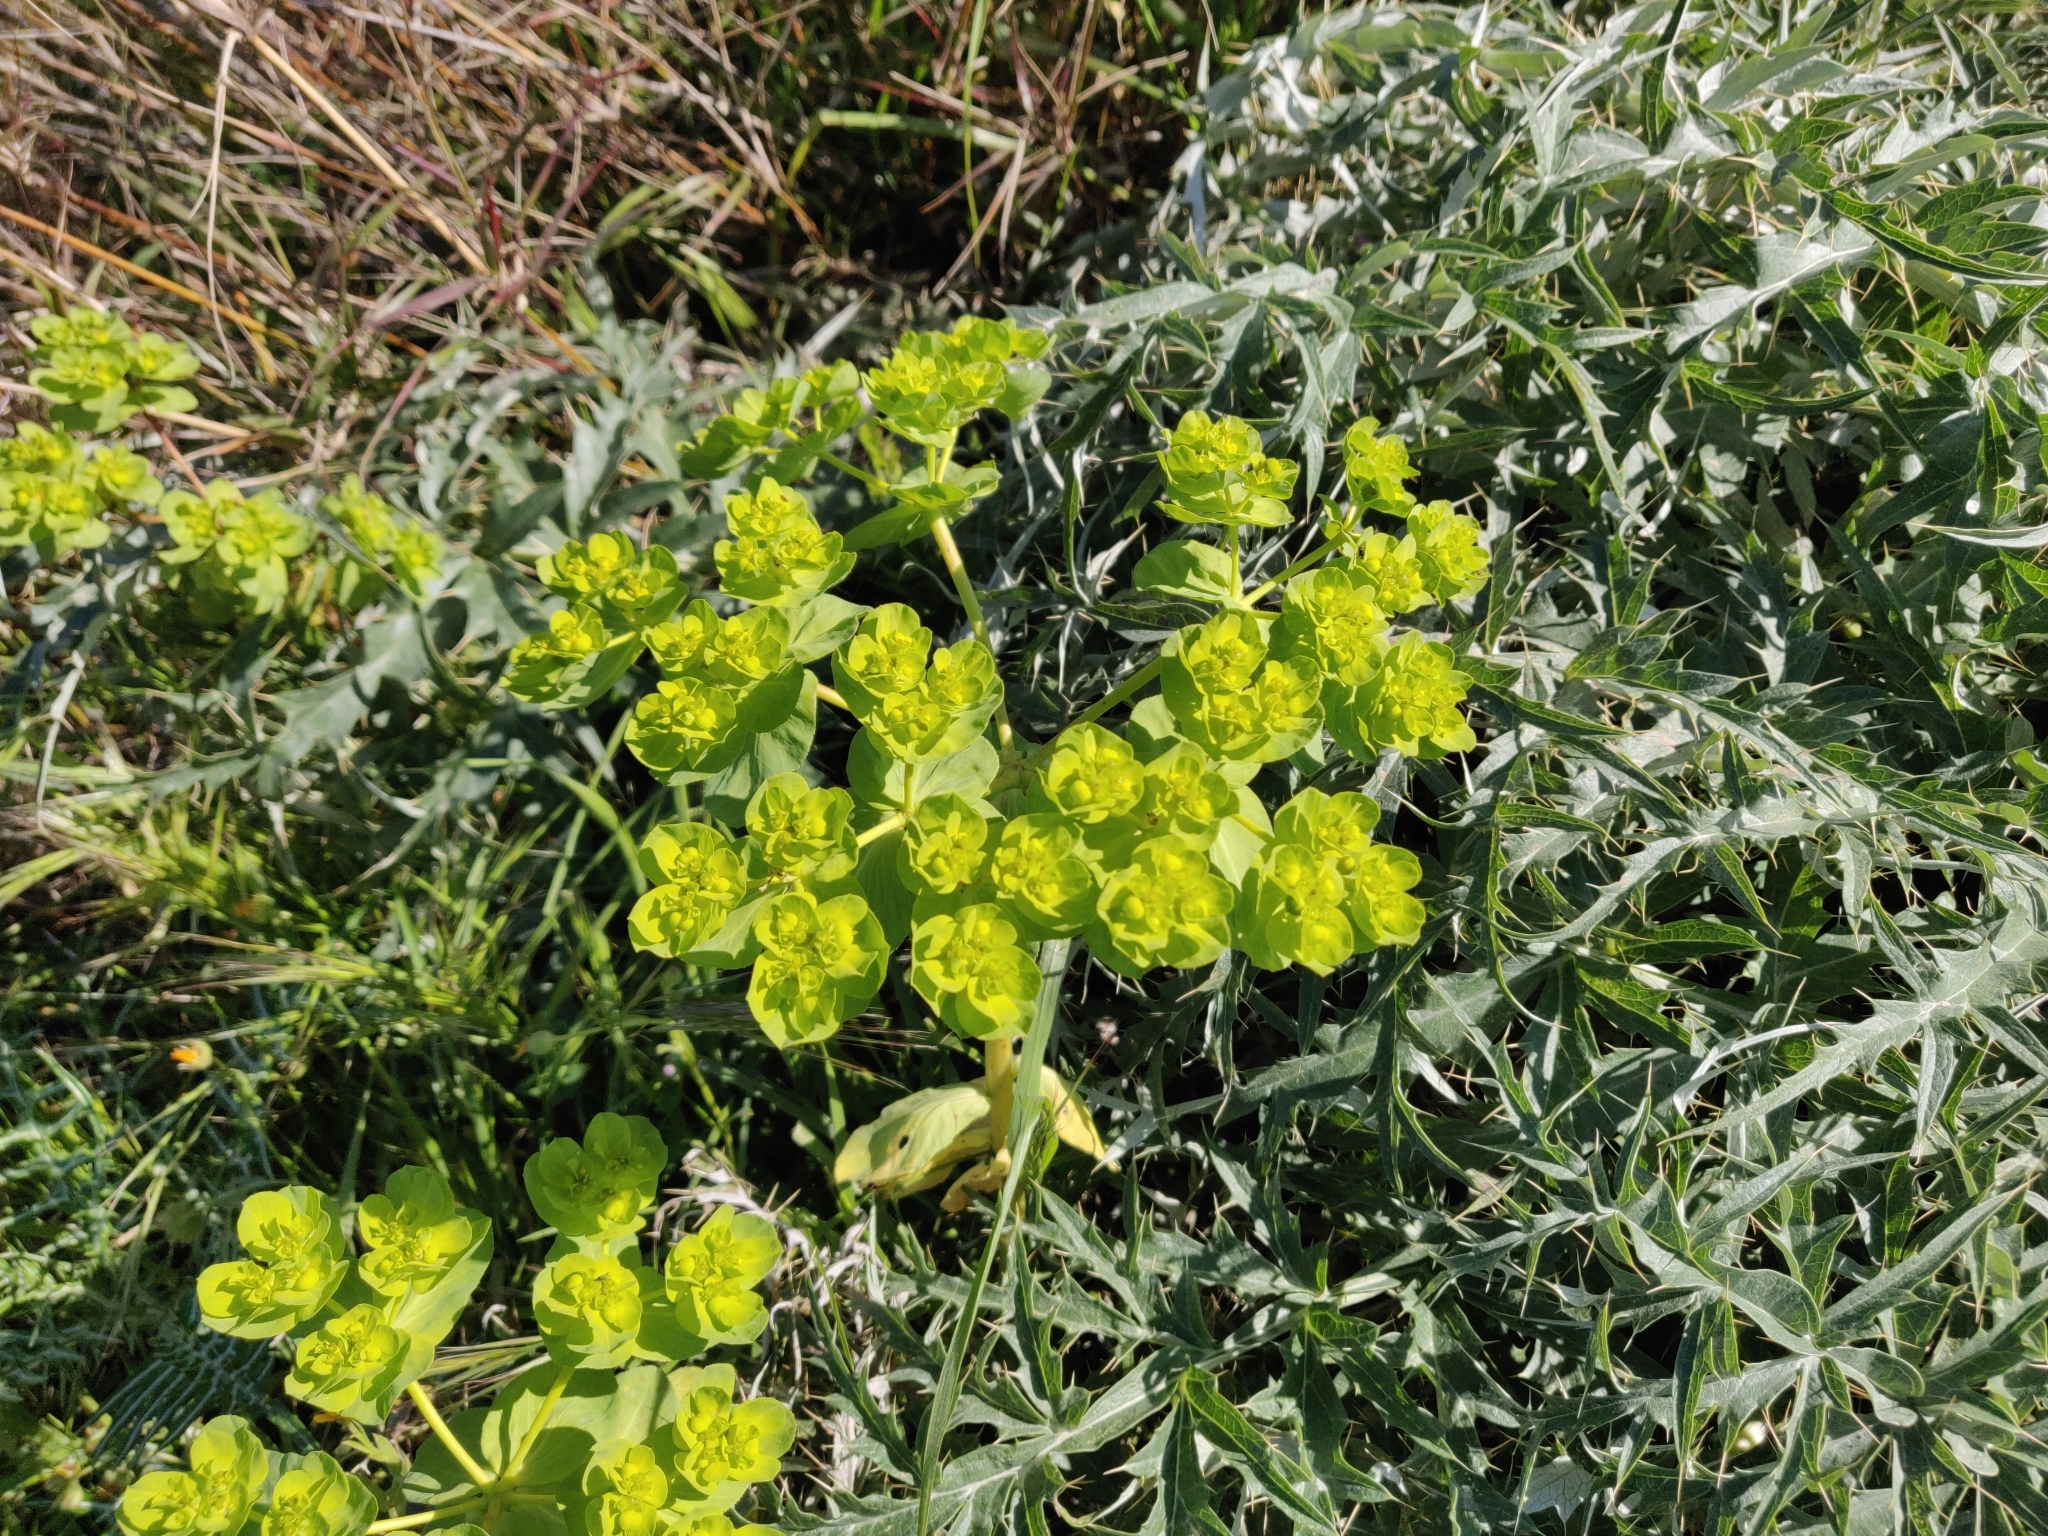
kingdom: Plantae
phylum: Tracheophyta
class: Magnoliopsida
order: Malpighiales
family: Euphorbiaceae
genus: Euphorbia
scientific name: Euphorbia helioscopia
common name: Sun spurge
